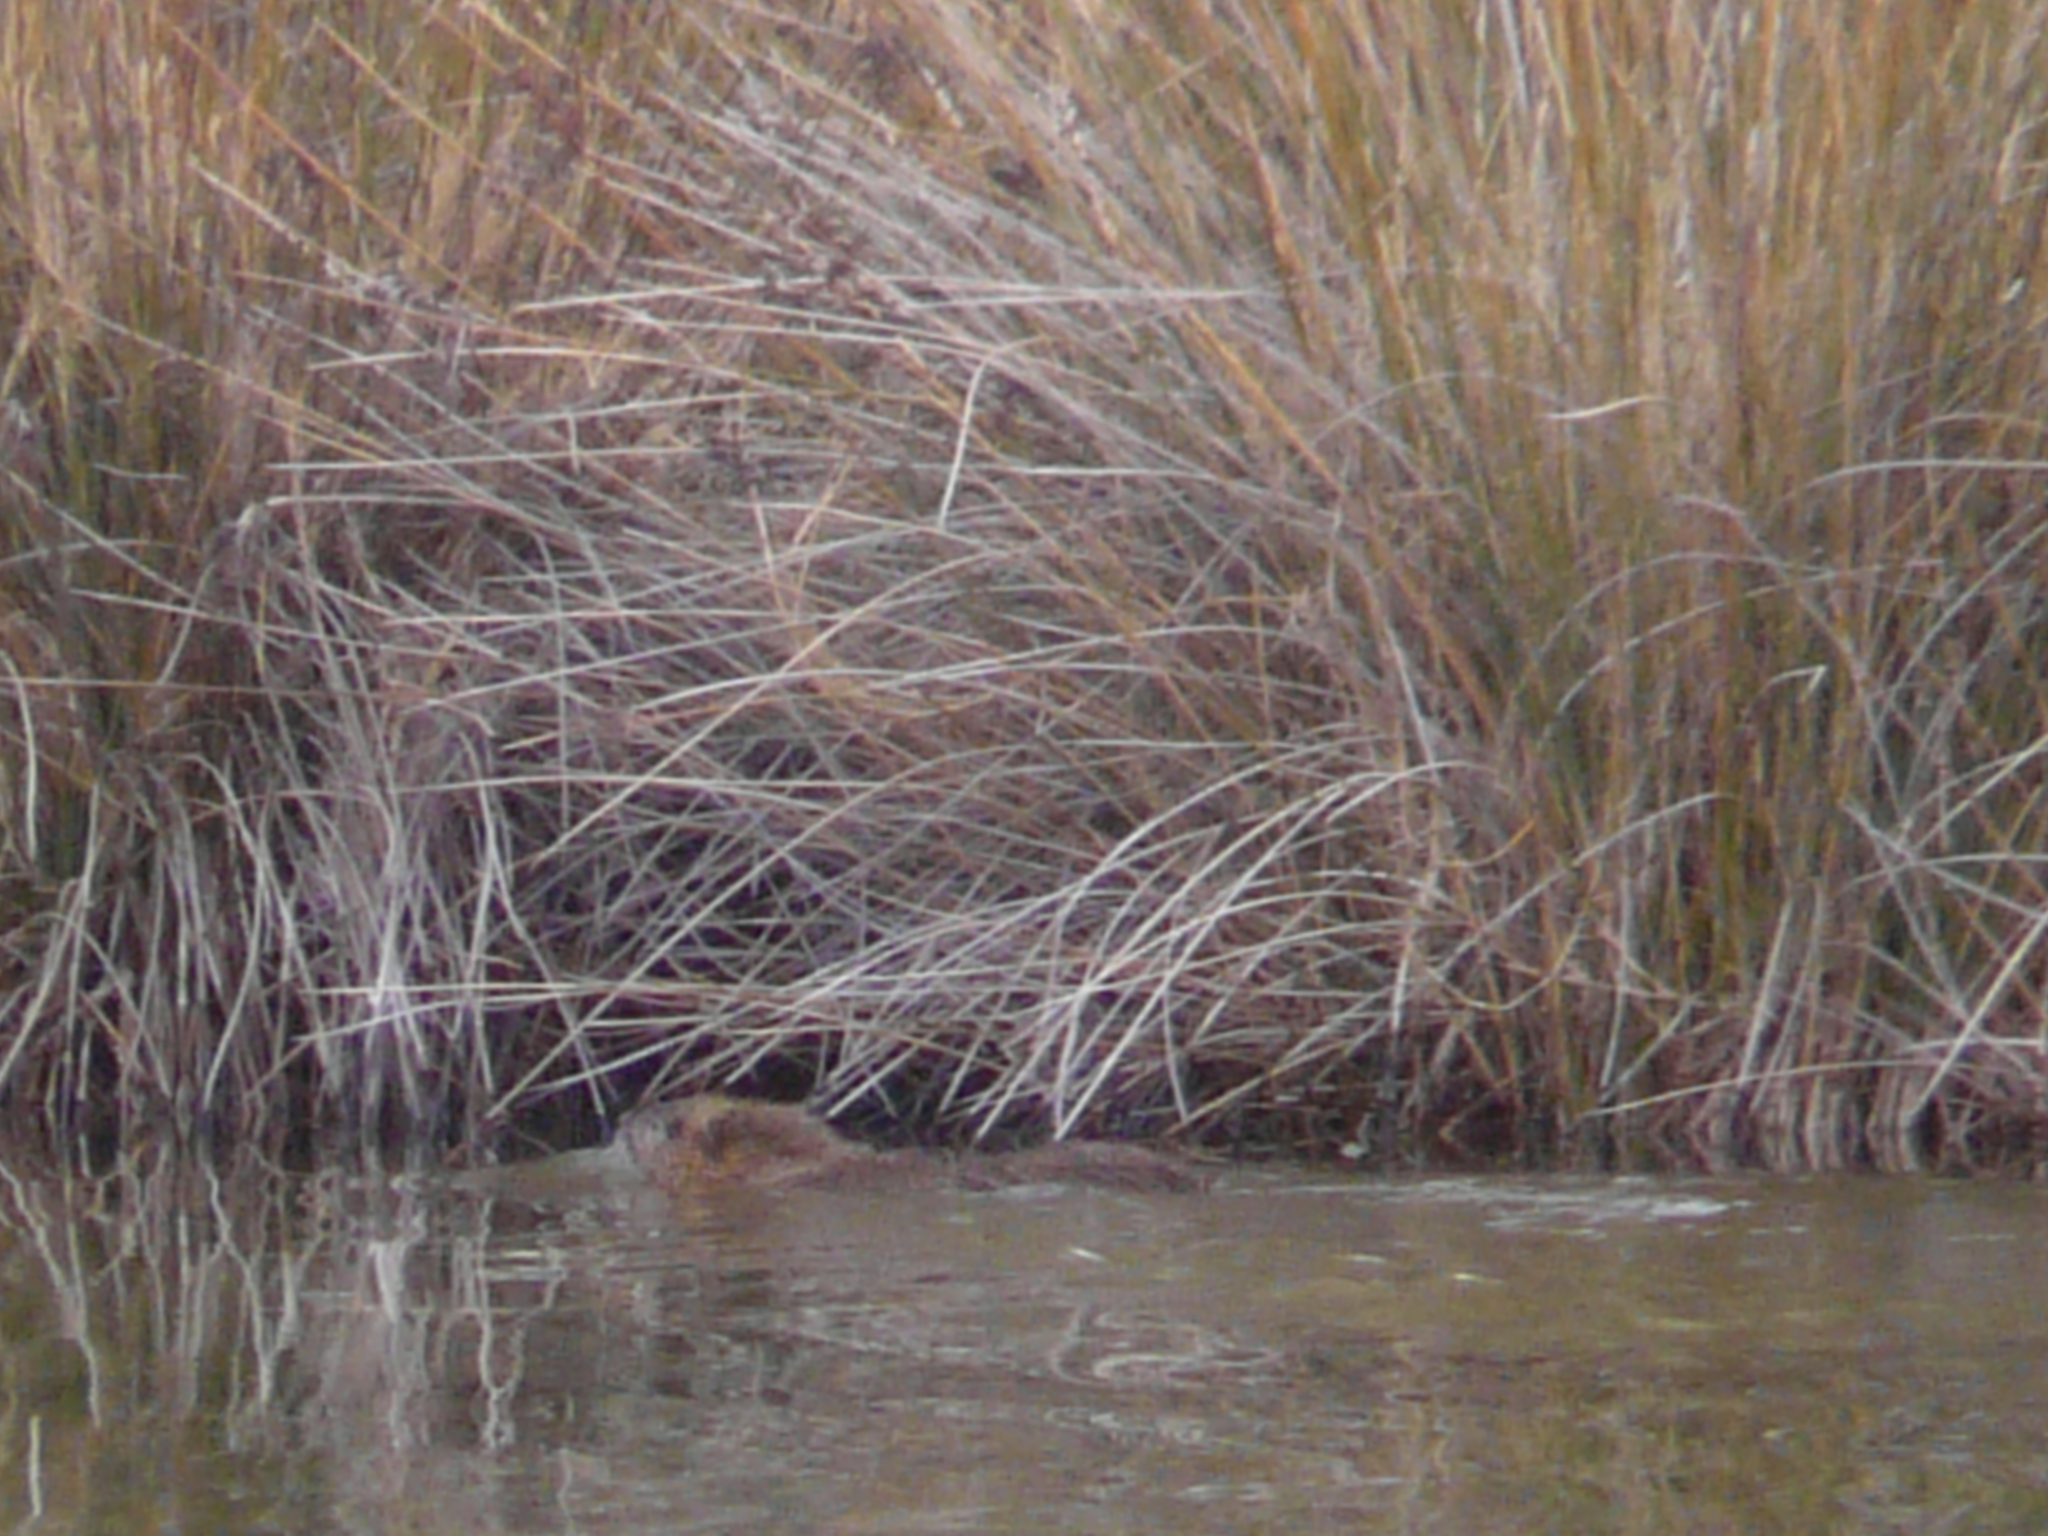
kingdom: Animalia
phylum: Chordata
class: Mammalia
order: Rodentia
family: Myocastoridae
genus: Myocastor
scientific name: Myocastor coypus
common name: Coypu
